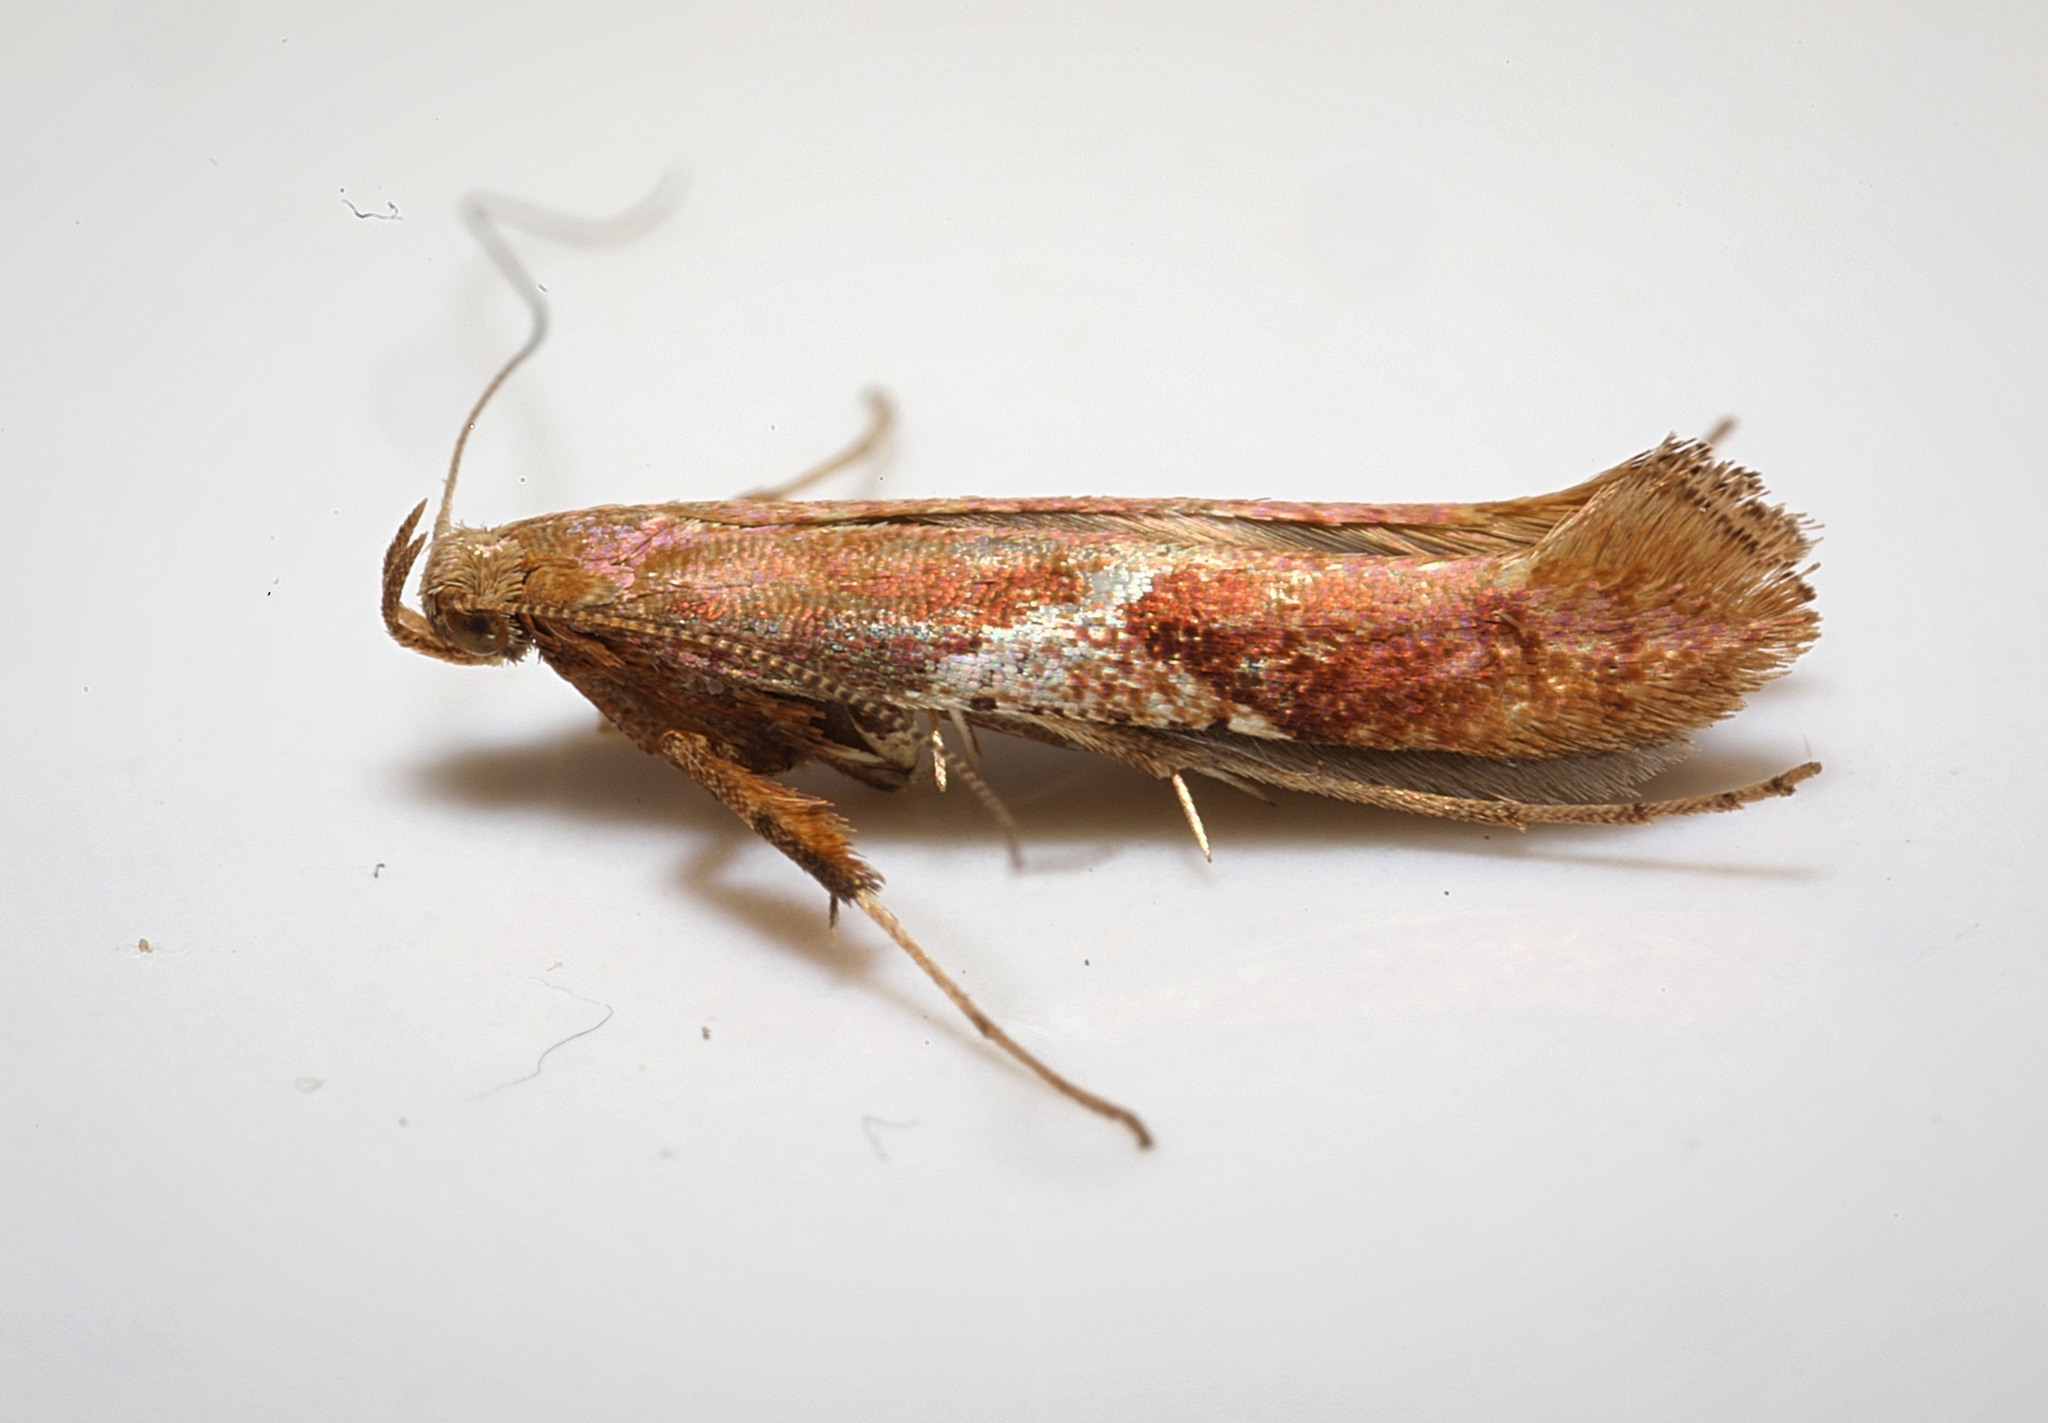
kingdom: Animalia
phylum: Arthropoda
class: Insecta
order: Lepidoptera
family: Gracillariidae
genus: Caloptilia
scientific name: Caloptilia stigmatella
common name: White-triangle slender
